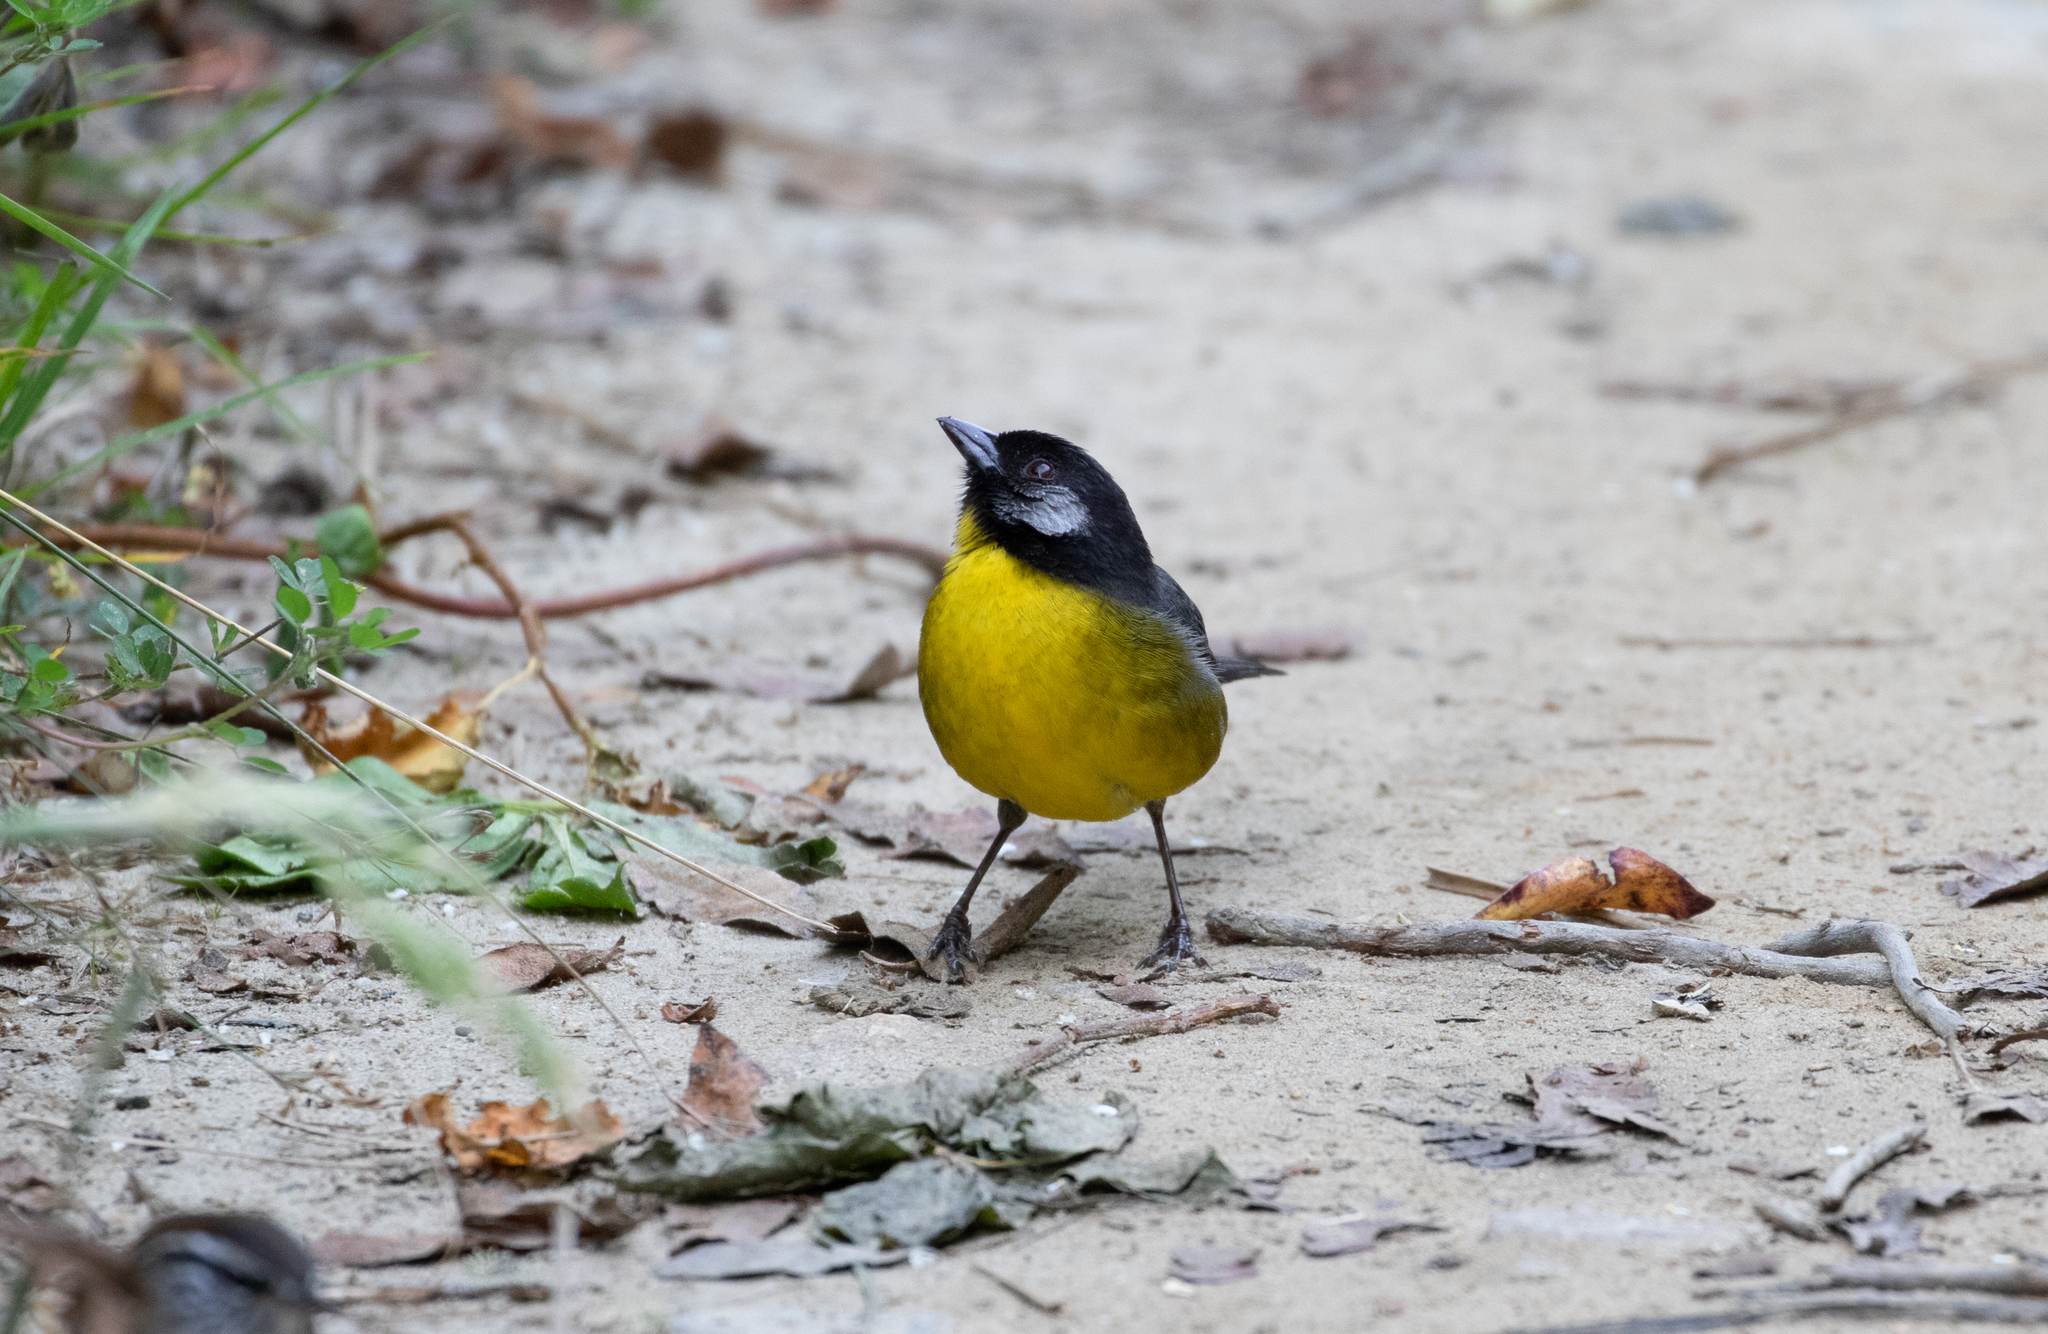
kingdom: Animalia
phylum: Chordata
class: Aves
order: Passeriformes
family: Passerellidae
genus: Atlapetes
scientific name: Atlapetes melanocephalus
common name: Santa marta brush-finch
